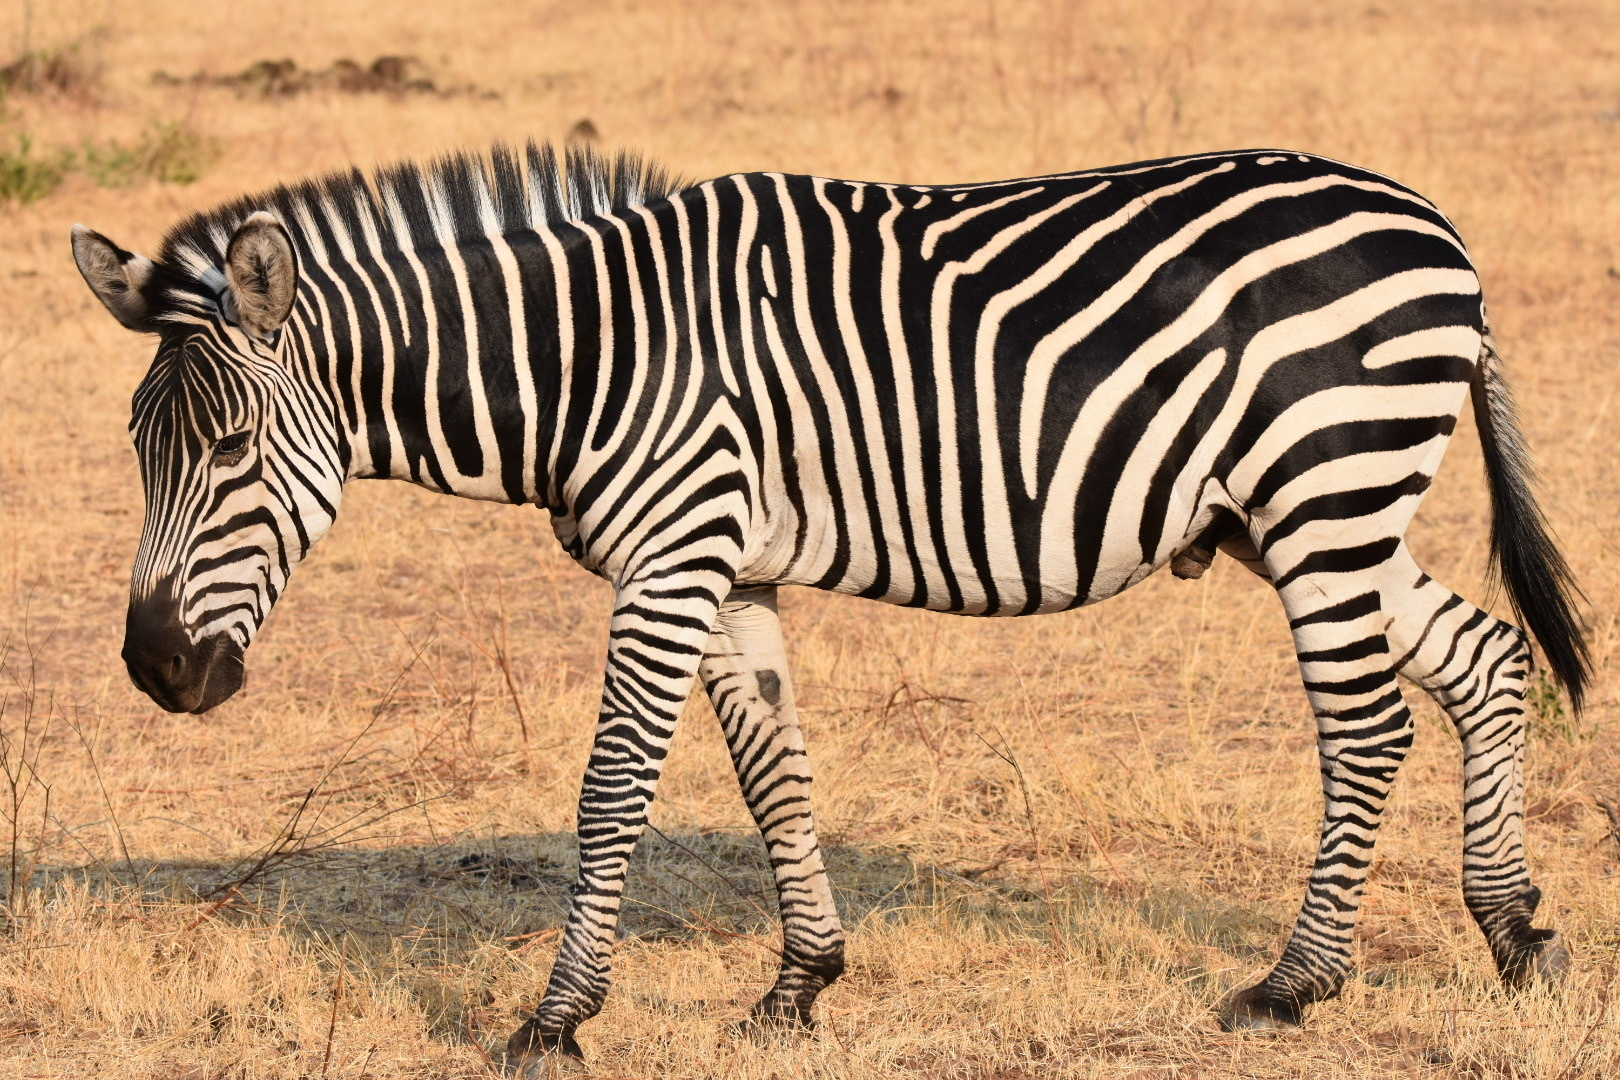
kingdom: Animalia
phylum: Chordata
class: Mammalia
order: Perissodactyla
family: Equidae
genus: Equus
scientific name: Equus quagga
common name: Plains zebra
